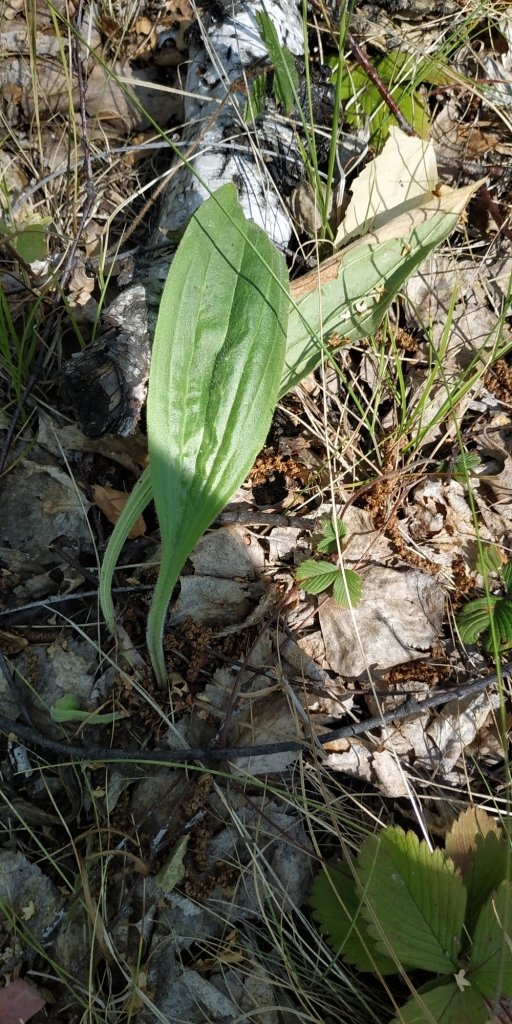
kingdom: Plantae
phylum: Tracheophyta
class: Magnoliopsida
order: Lamiales
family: Plantaginaceae
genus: Plantago
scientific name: Plantago urvillei
